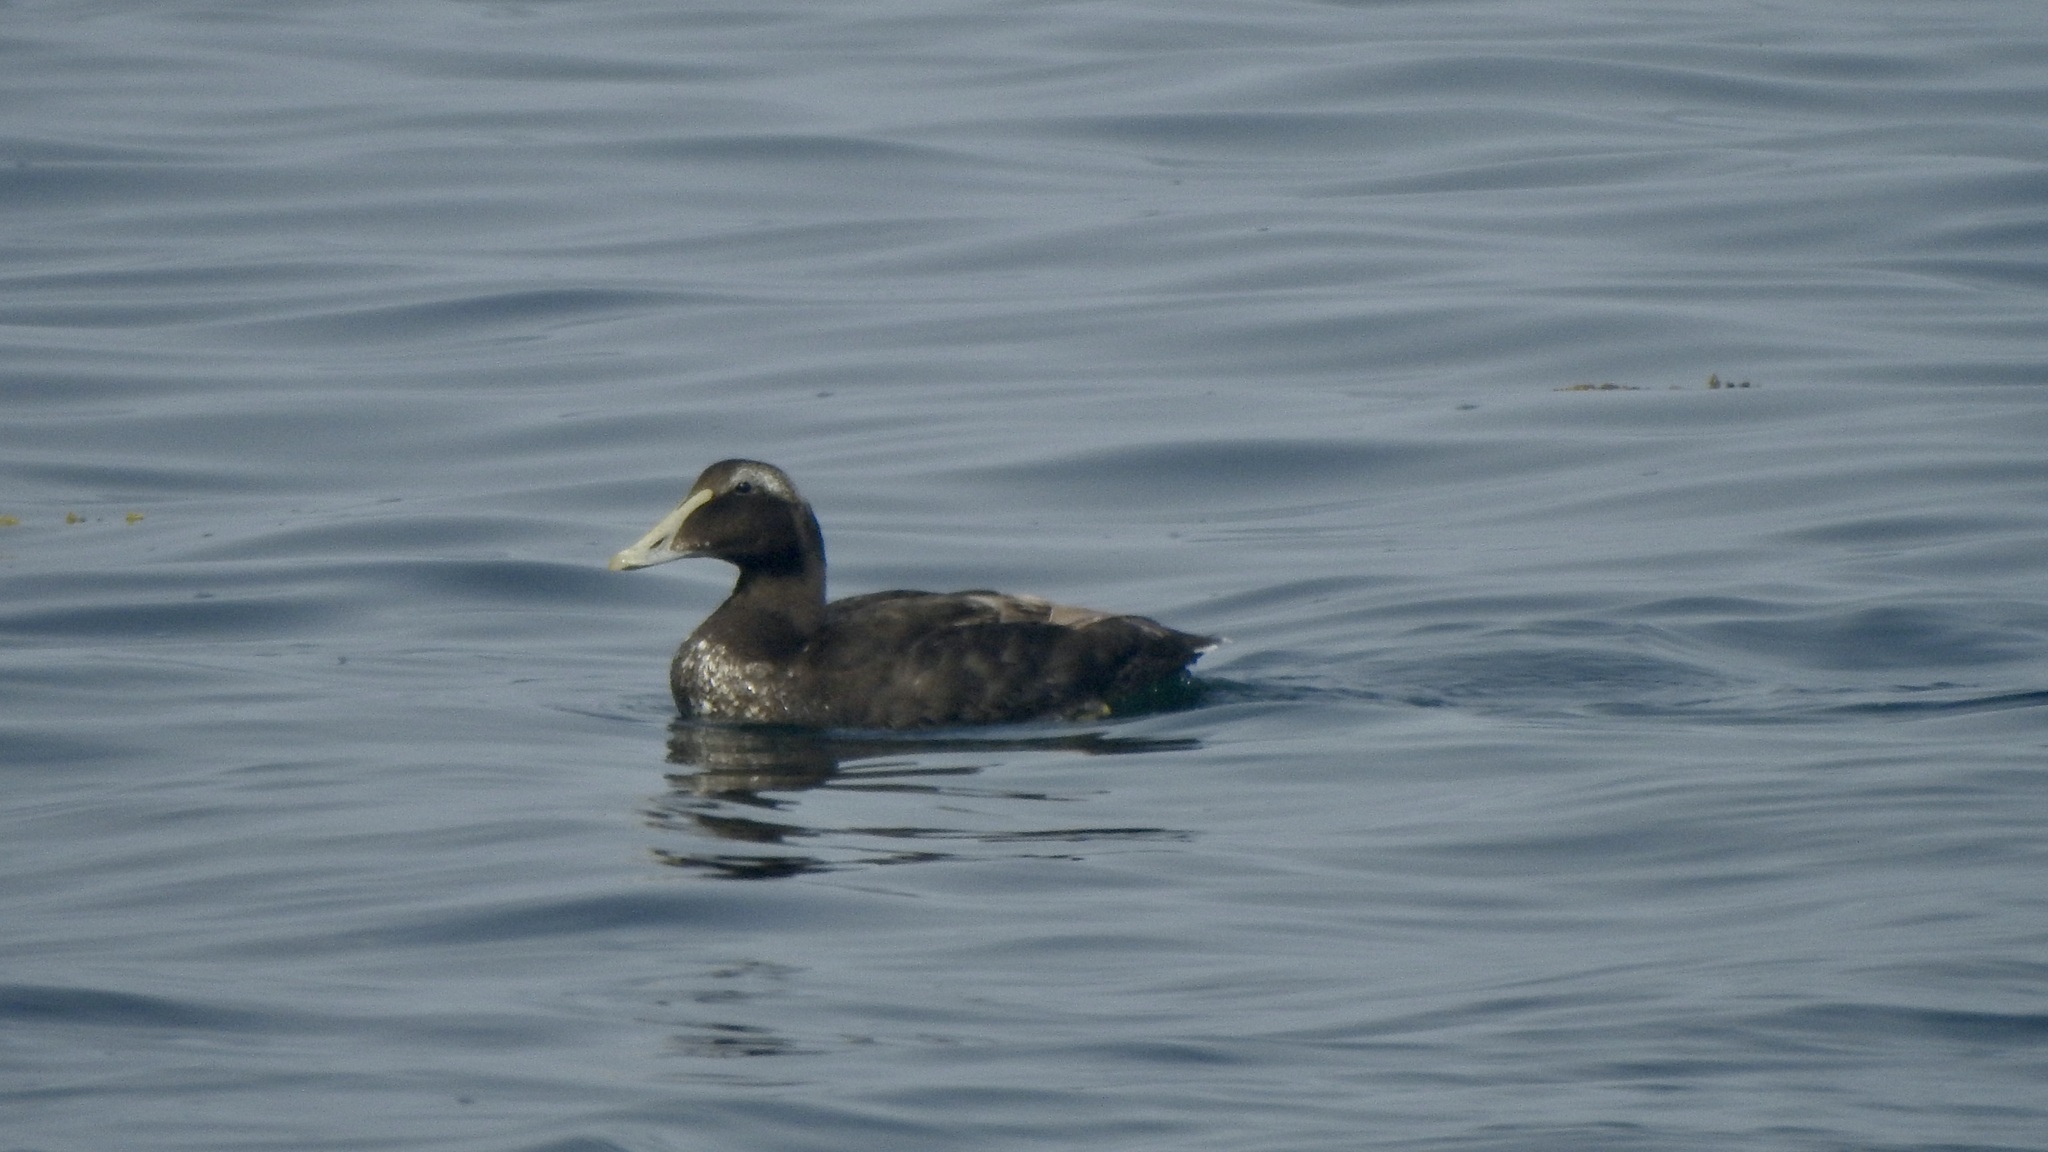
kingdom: Animalia
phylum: Chordata
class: Aves
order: Anseriformes
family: Anatidae
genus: Somateria
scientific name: Somateria mollissima
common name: Common eider
